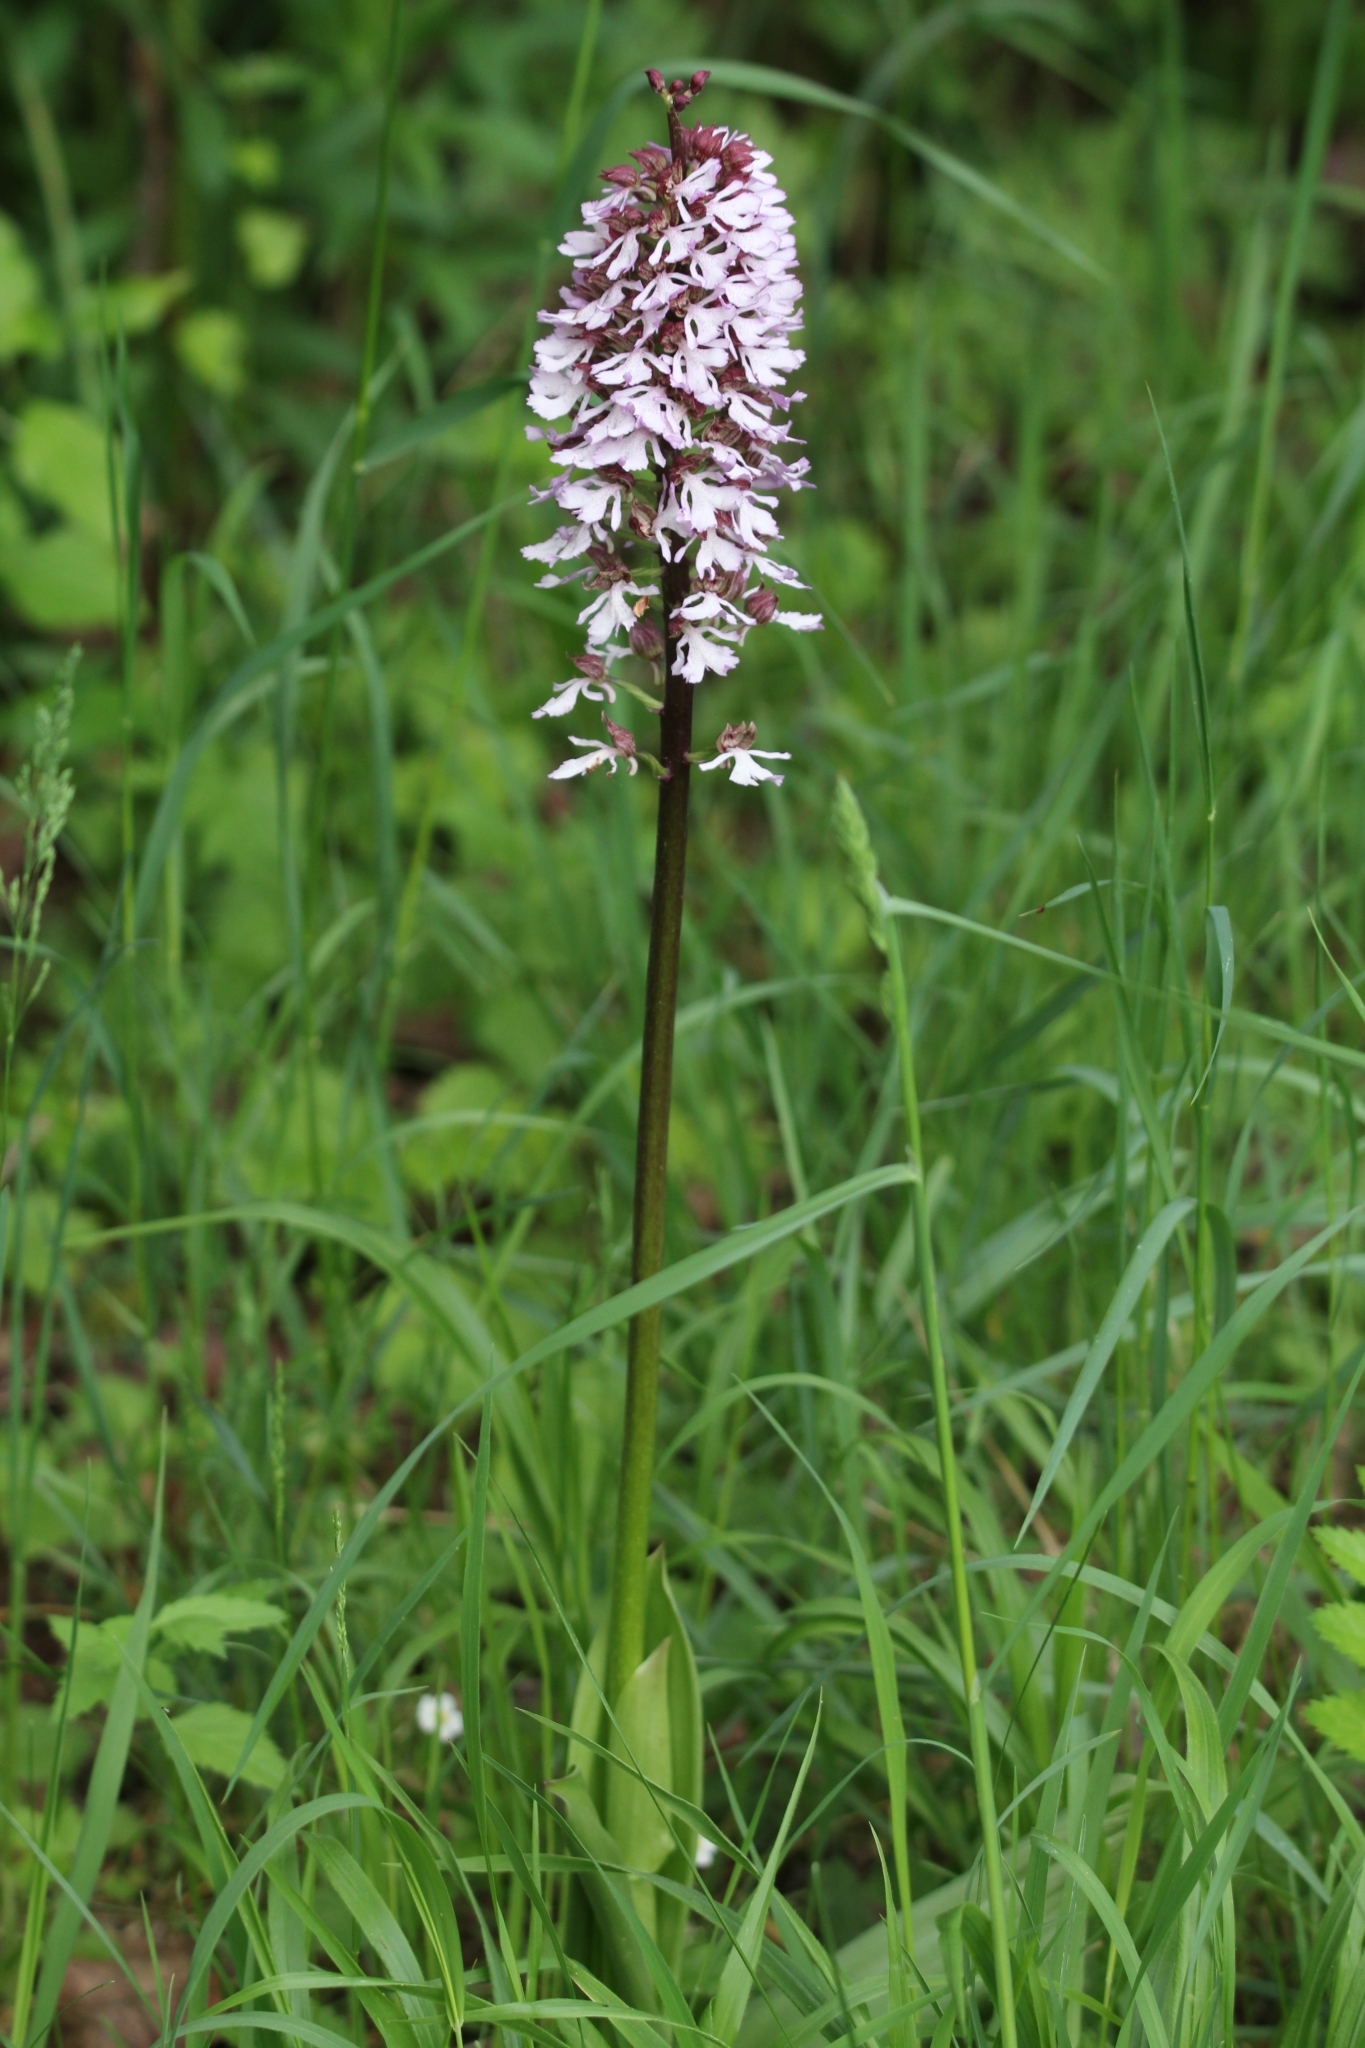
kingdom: Plantae
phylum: Tracheophyta
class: Liliopsida
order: Asparagales
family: Orchidaceae
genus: Orchis
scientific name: Orchis purpurea
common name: Lady orchid
